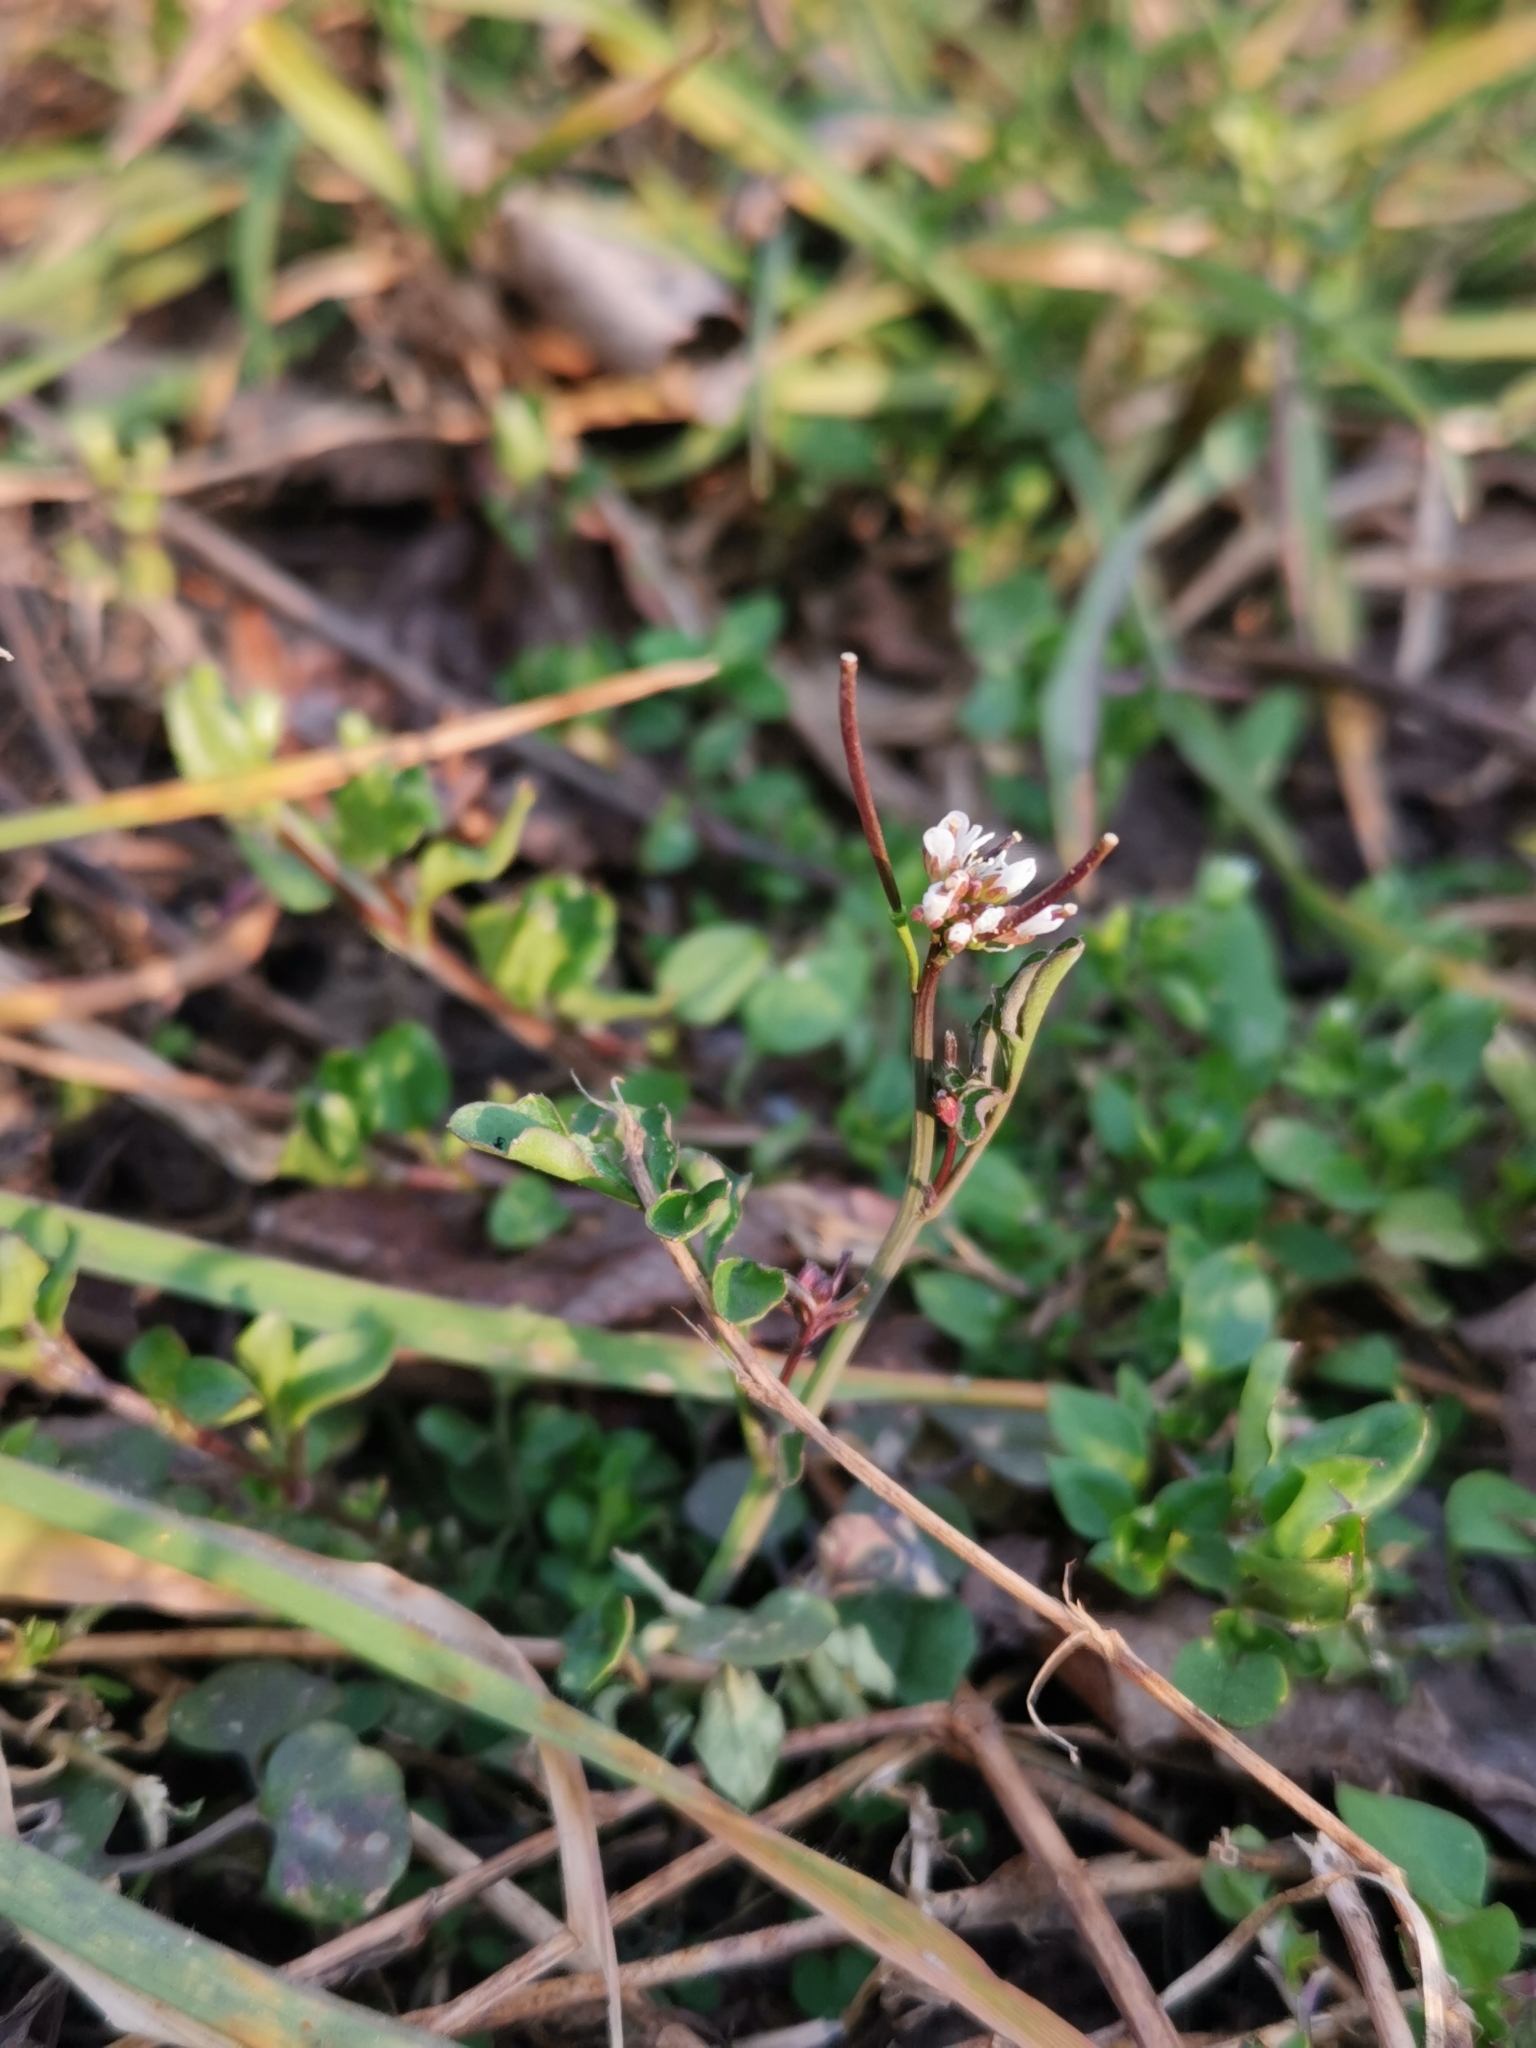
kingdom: Plantae
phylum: Tracheophyta
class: Magnoliopsida
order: Brassicales
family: Brassicaceae
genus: Cardamine
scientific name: Cardamine hirsuta
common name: Hairy bittercress
